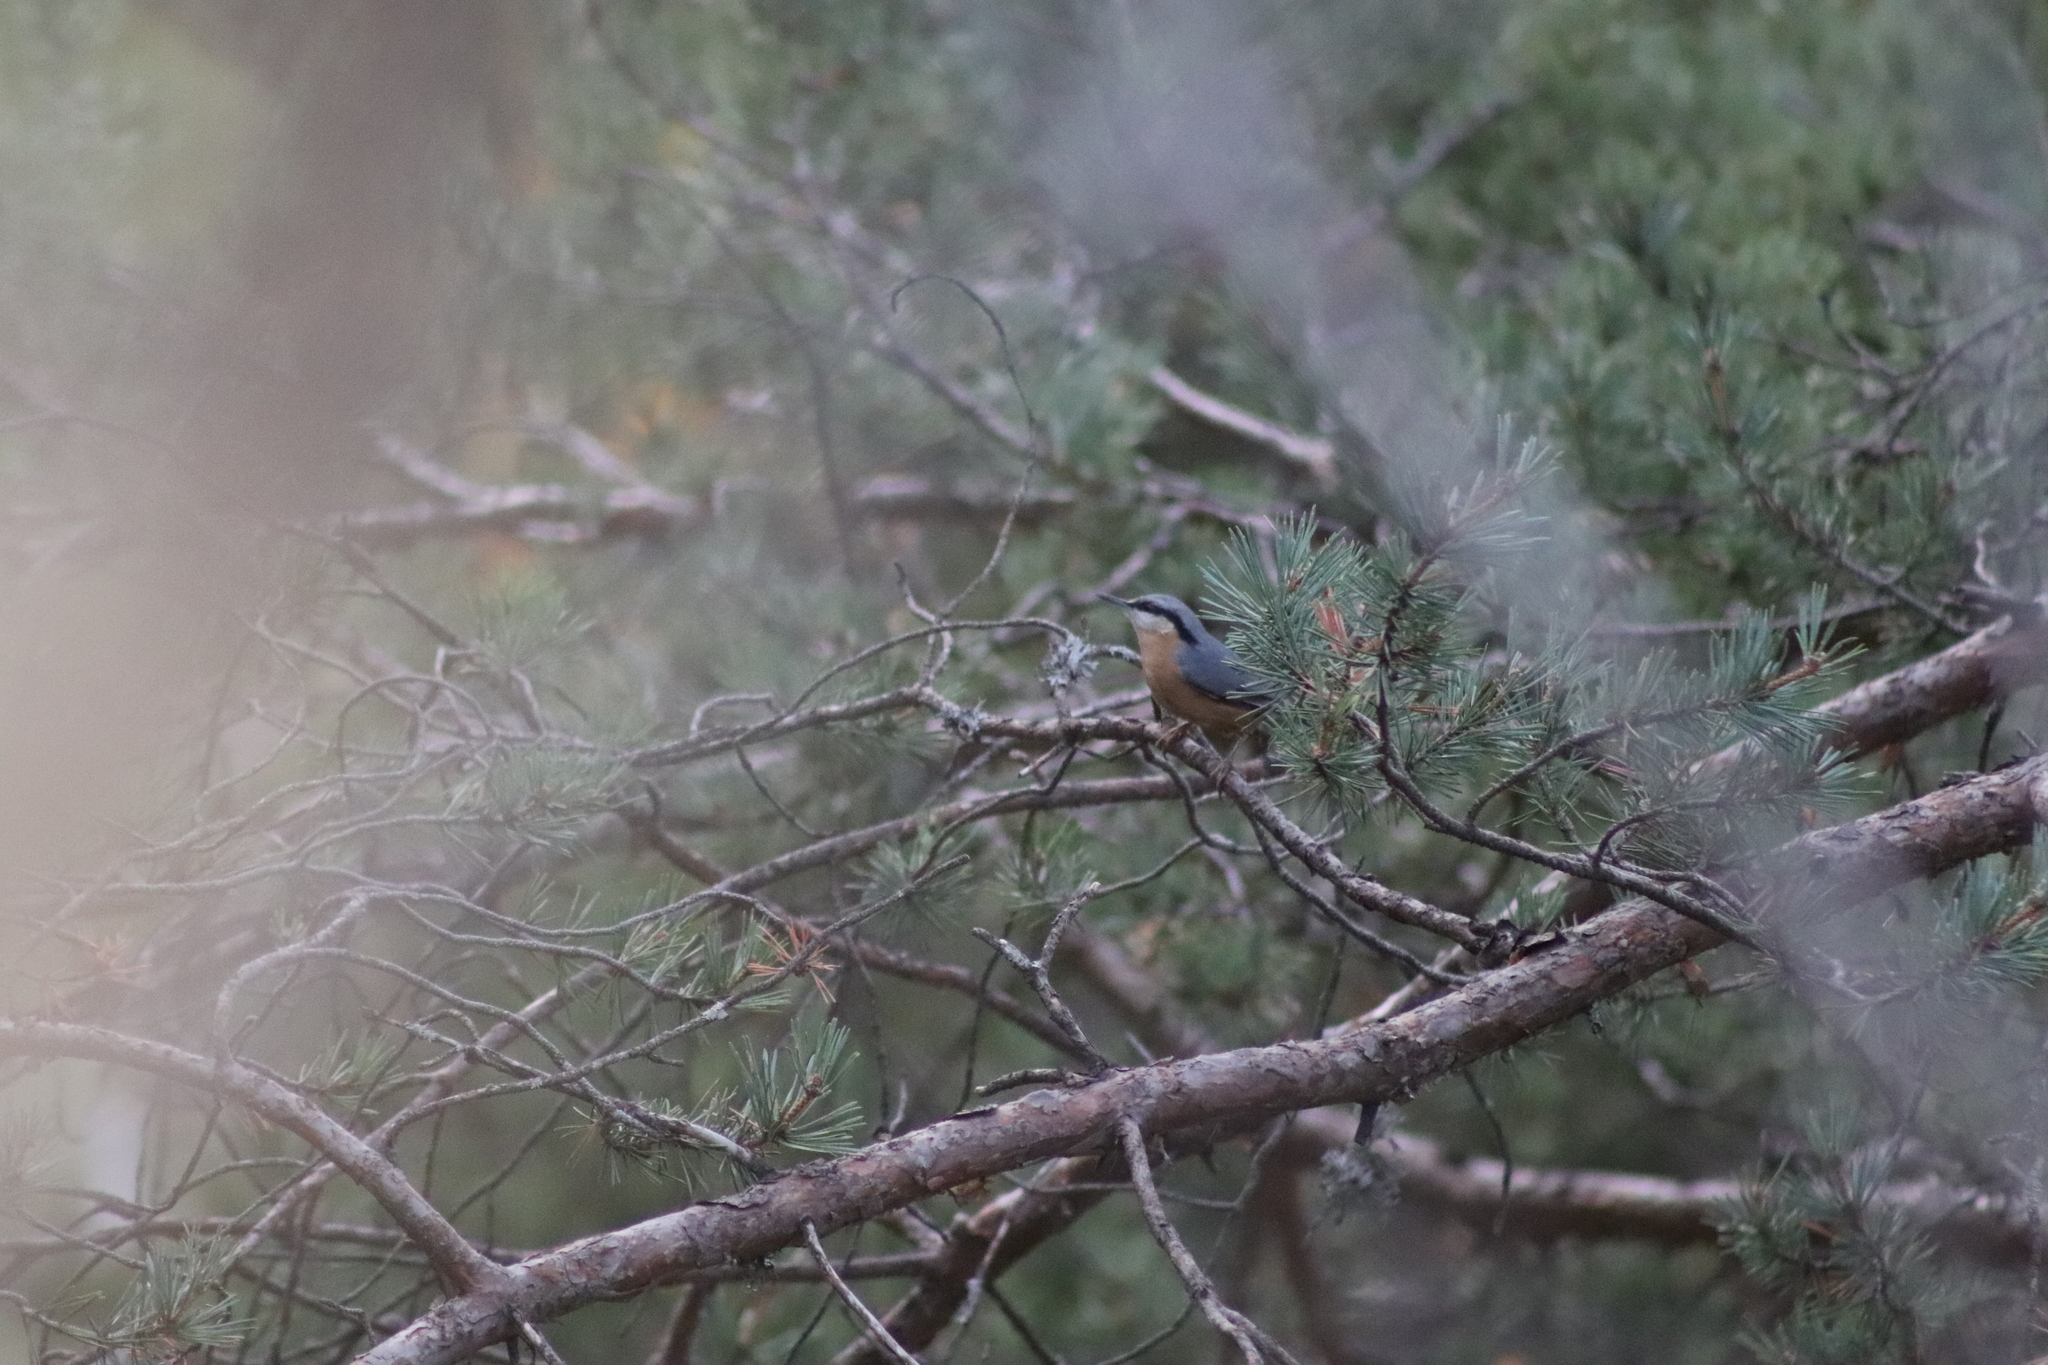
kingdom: Animalia
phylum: Chordata
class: Aves
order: Passeriformes
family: Sittidae
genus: Sitta
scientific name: Sitta europaea
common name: Eurasian nuthatch
